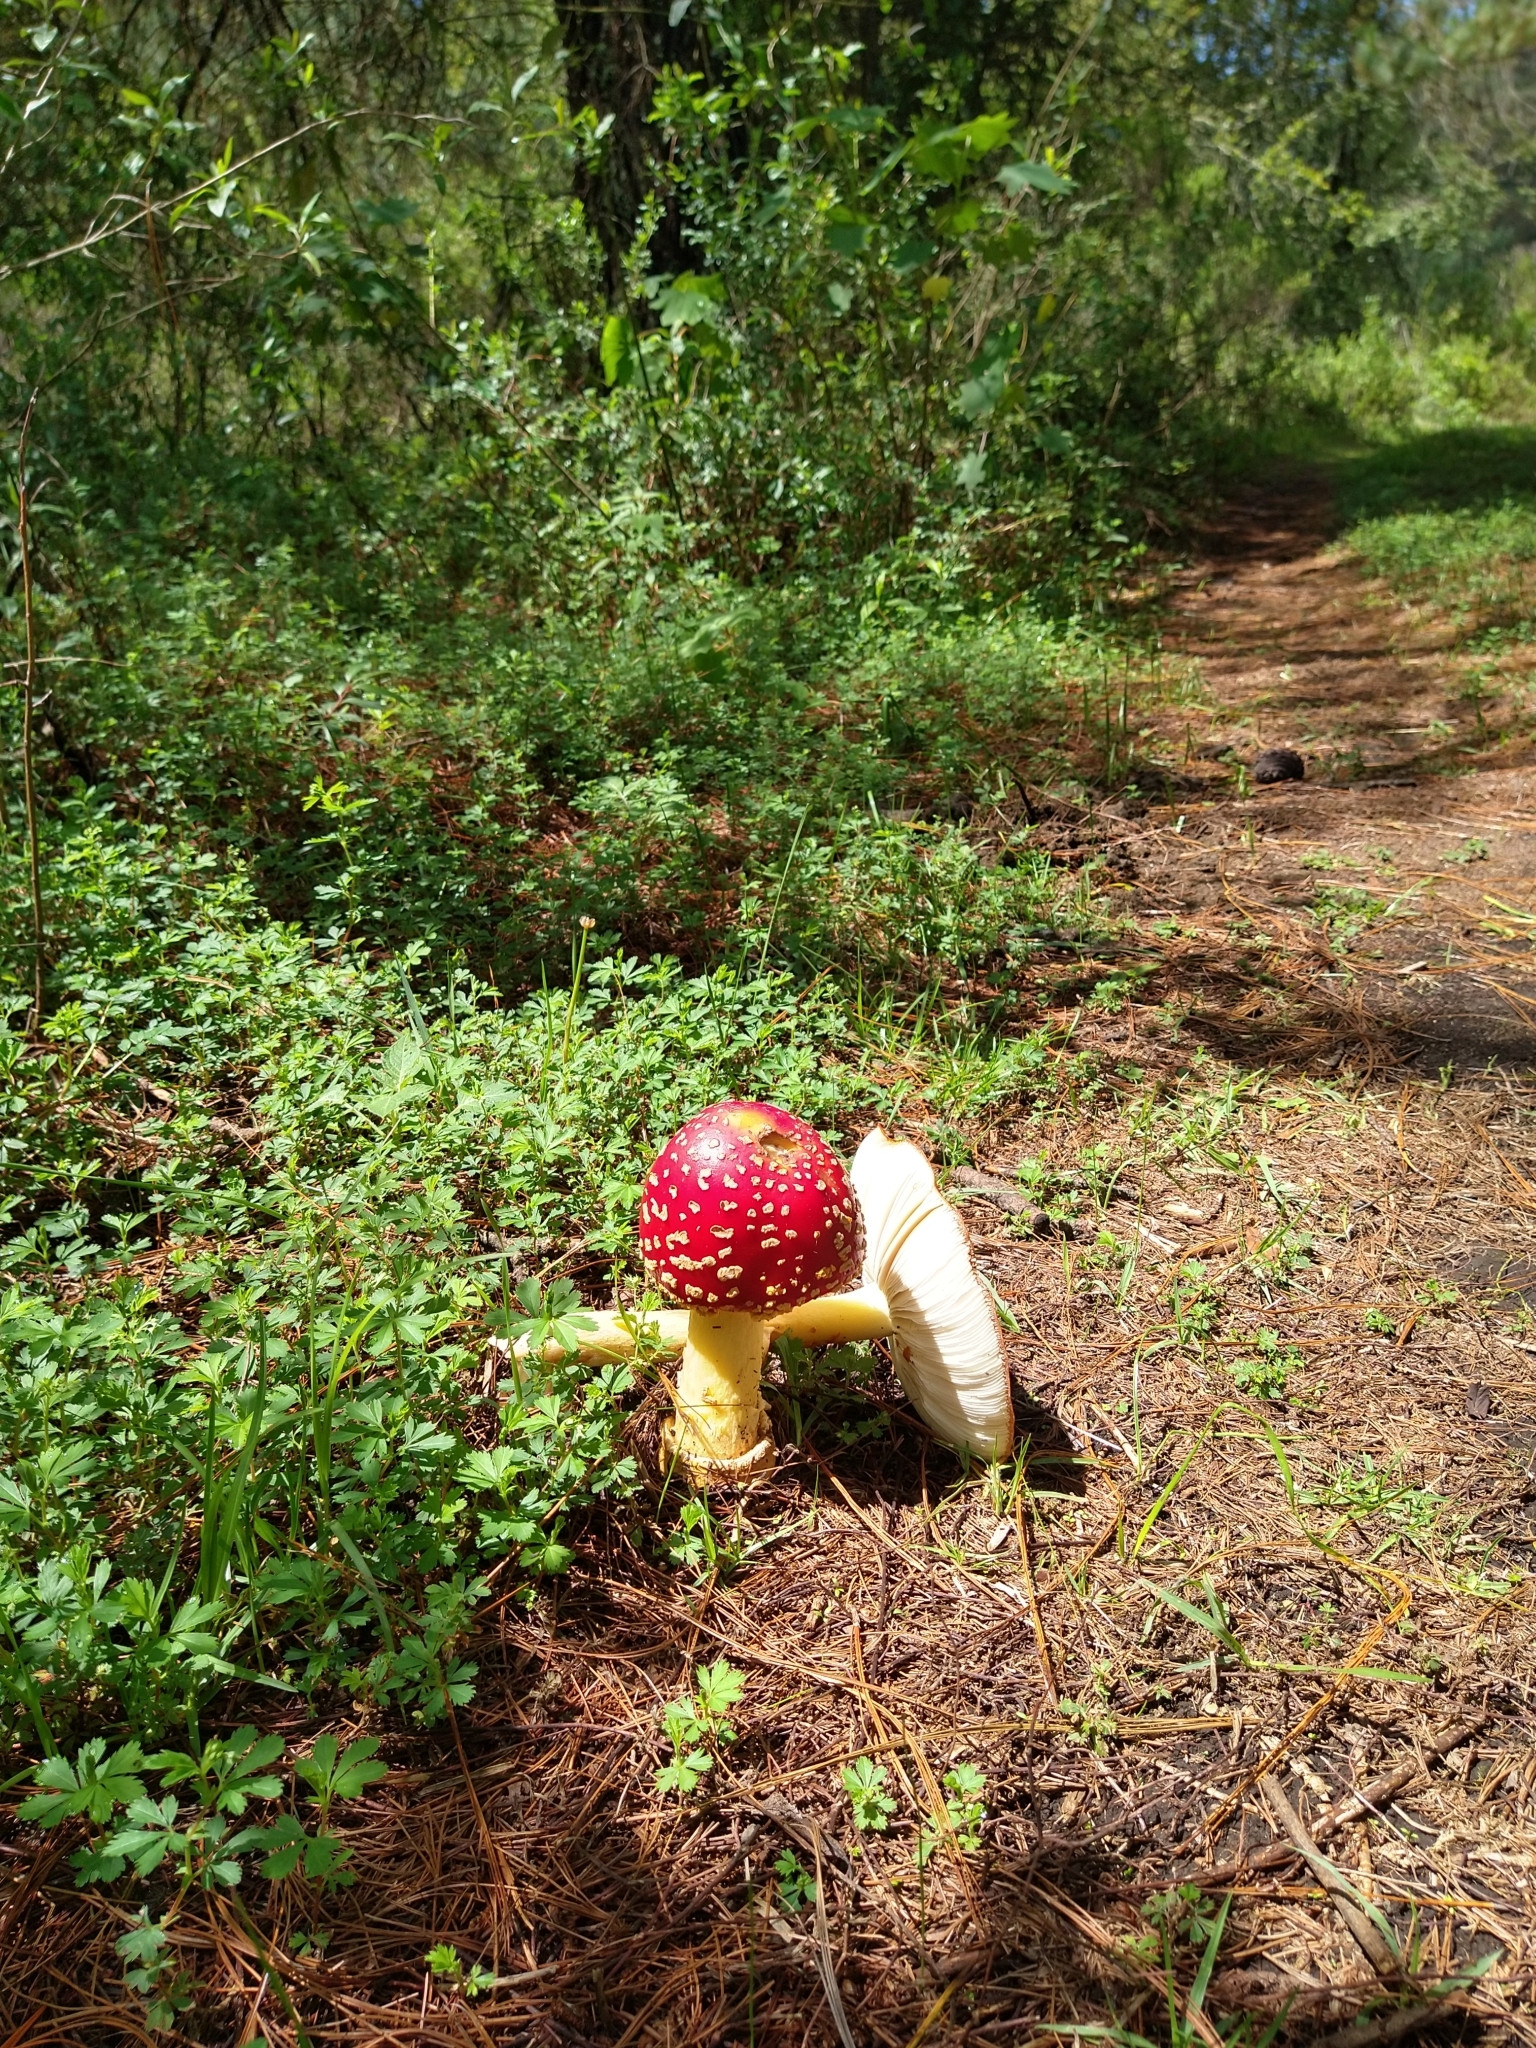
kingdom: Fungi
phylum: Basidiomycota
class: Agaricomycetes
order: Agaricales
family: Amanitaceae
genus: Amanita
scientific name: Amanita muscaria
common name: Fly agaric
